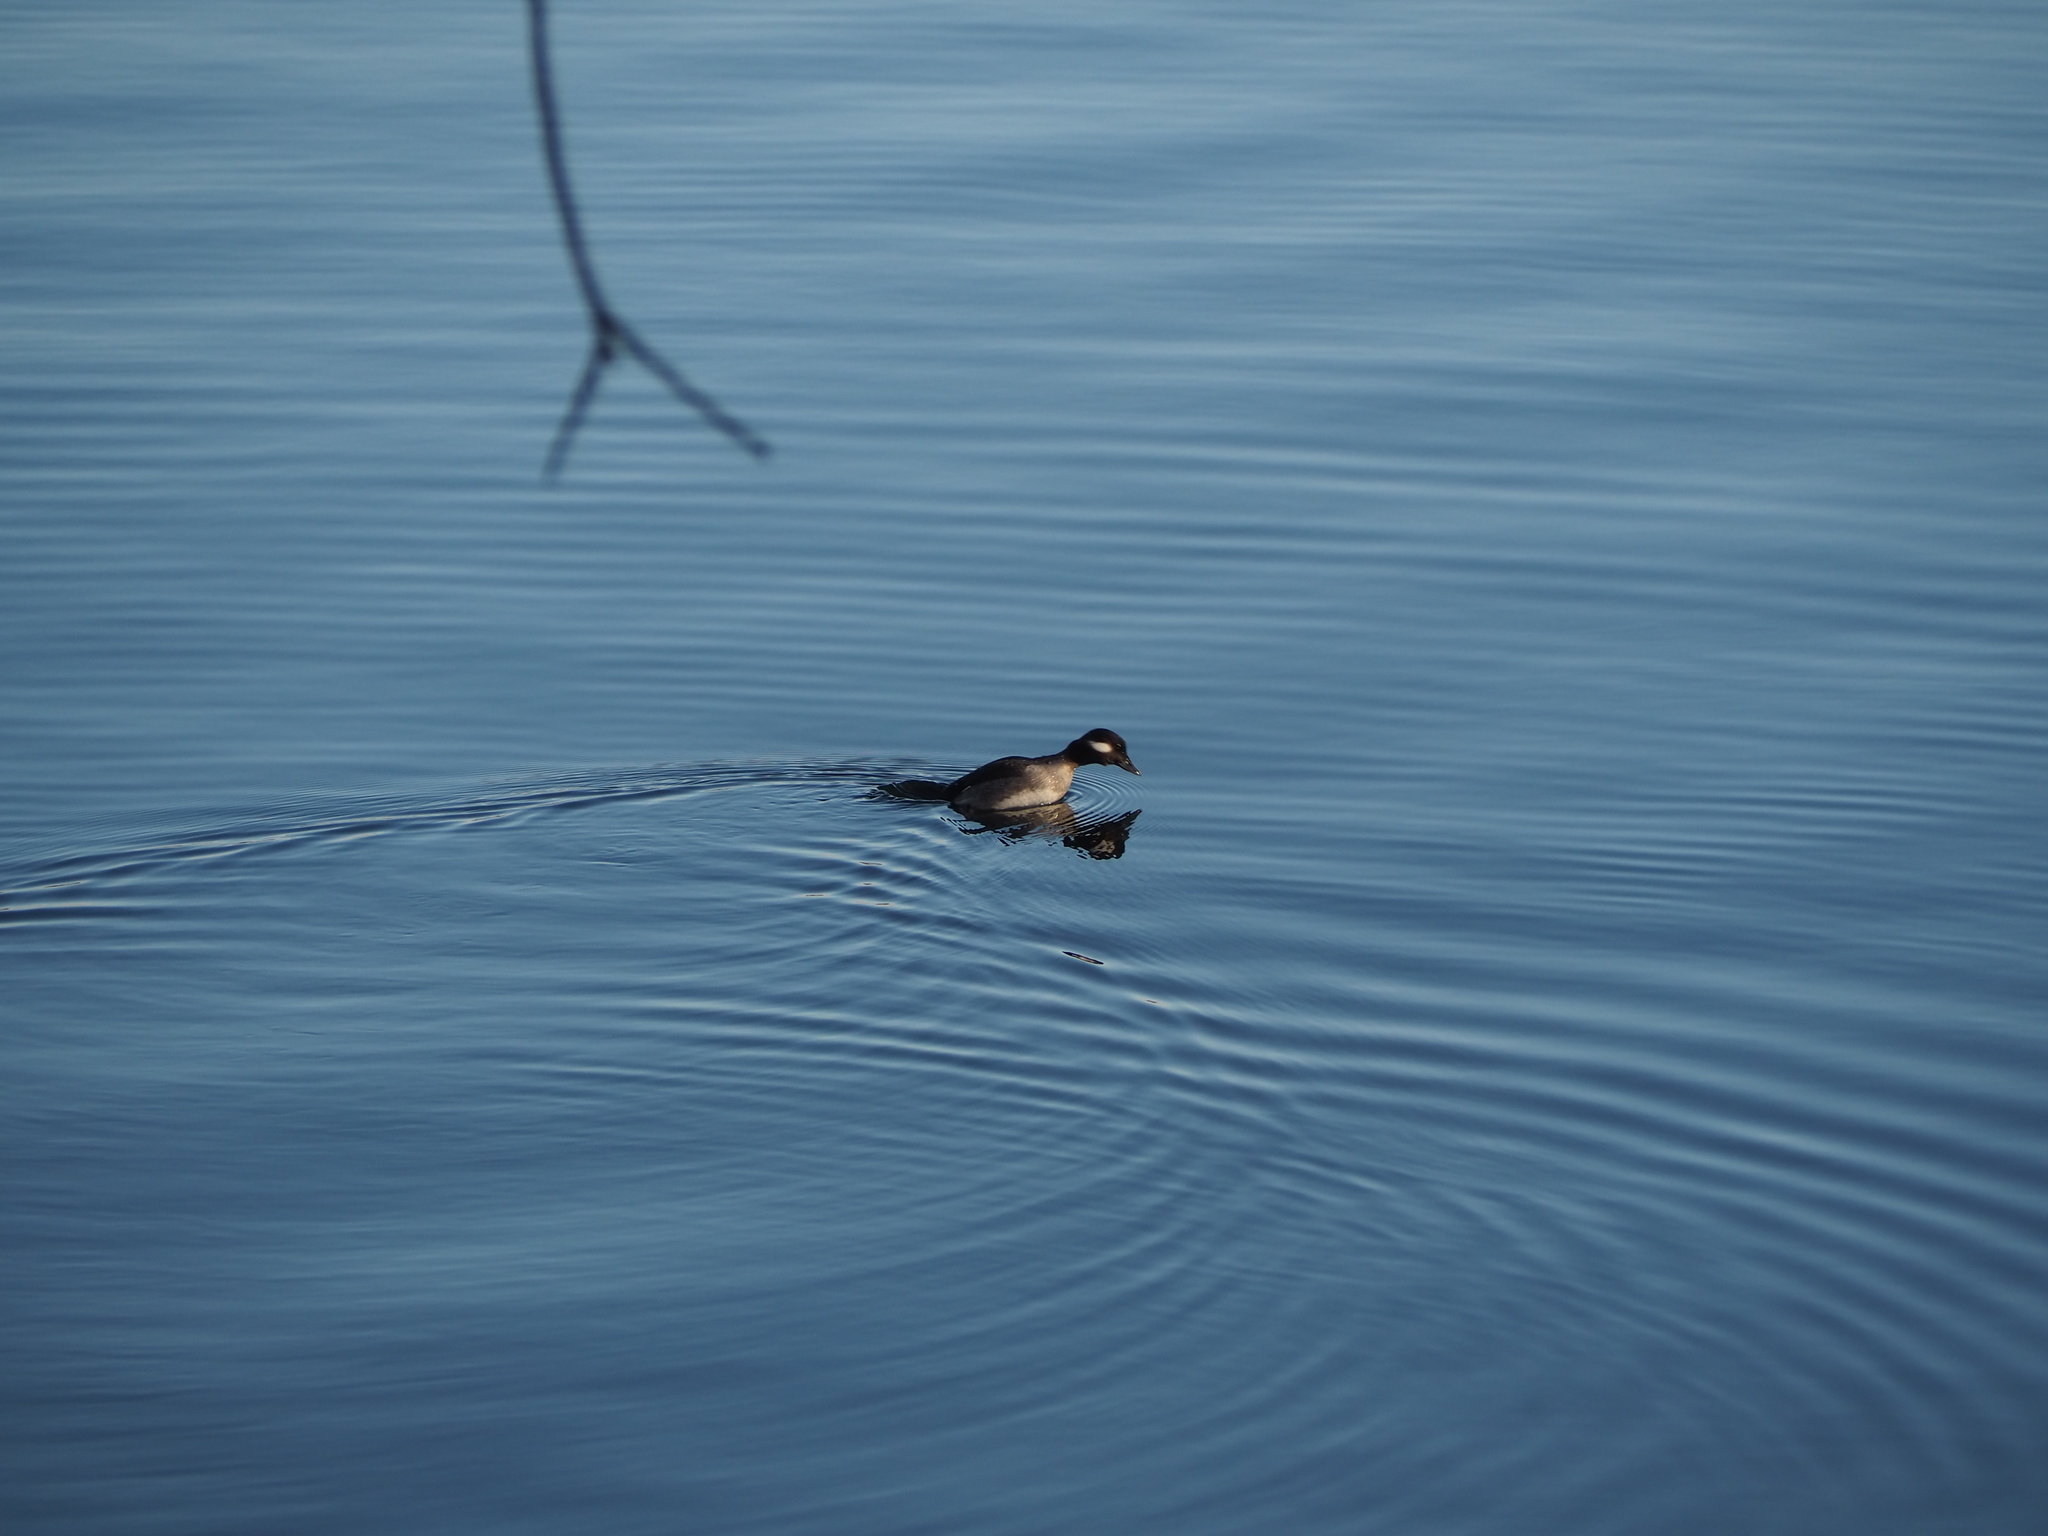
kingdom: Animalia
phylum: Chordata
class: Aves
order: Anseriformes
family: Anatidae
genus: Bucephala
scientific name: Bucephala albeola
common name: Bufflehead
